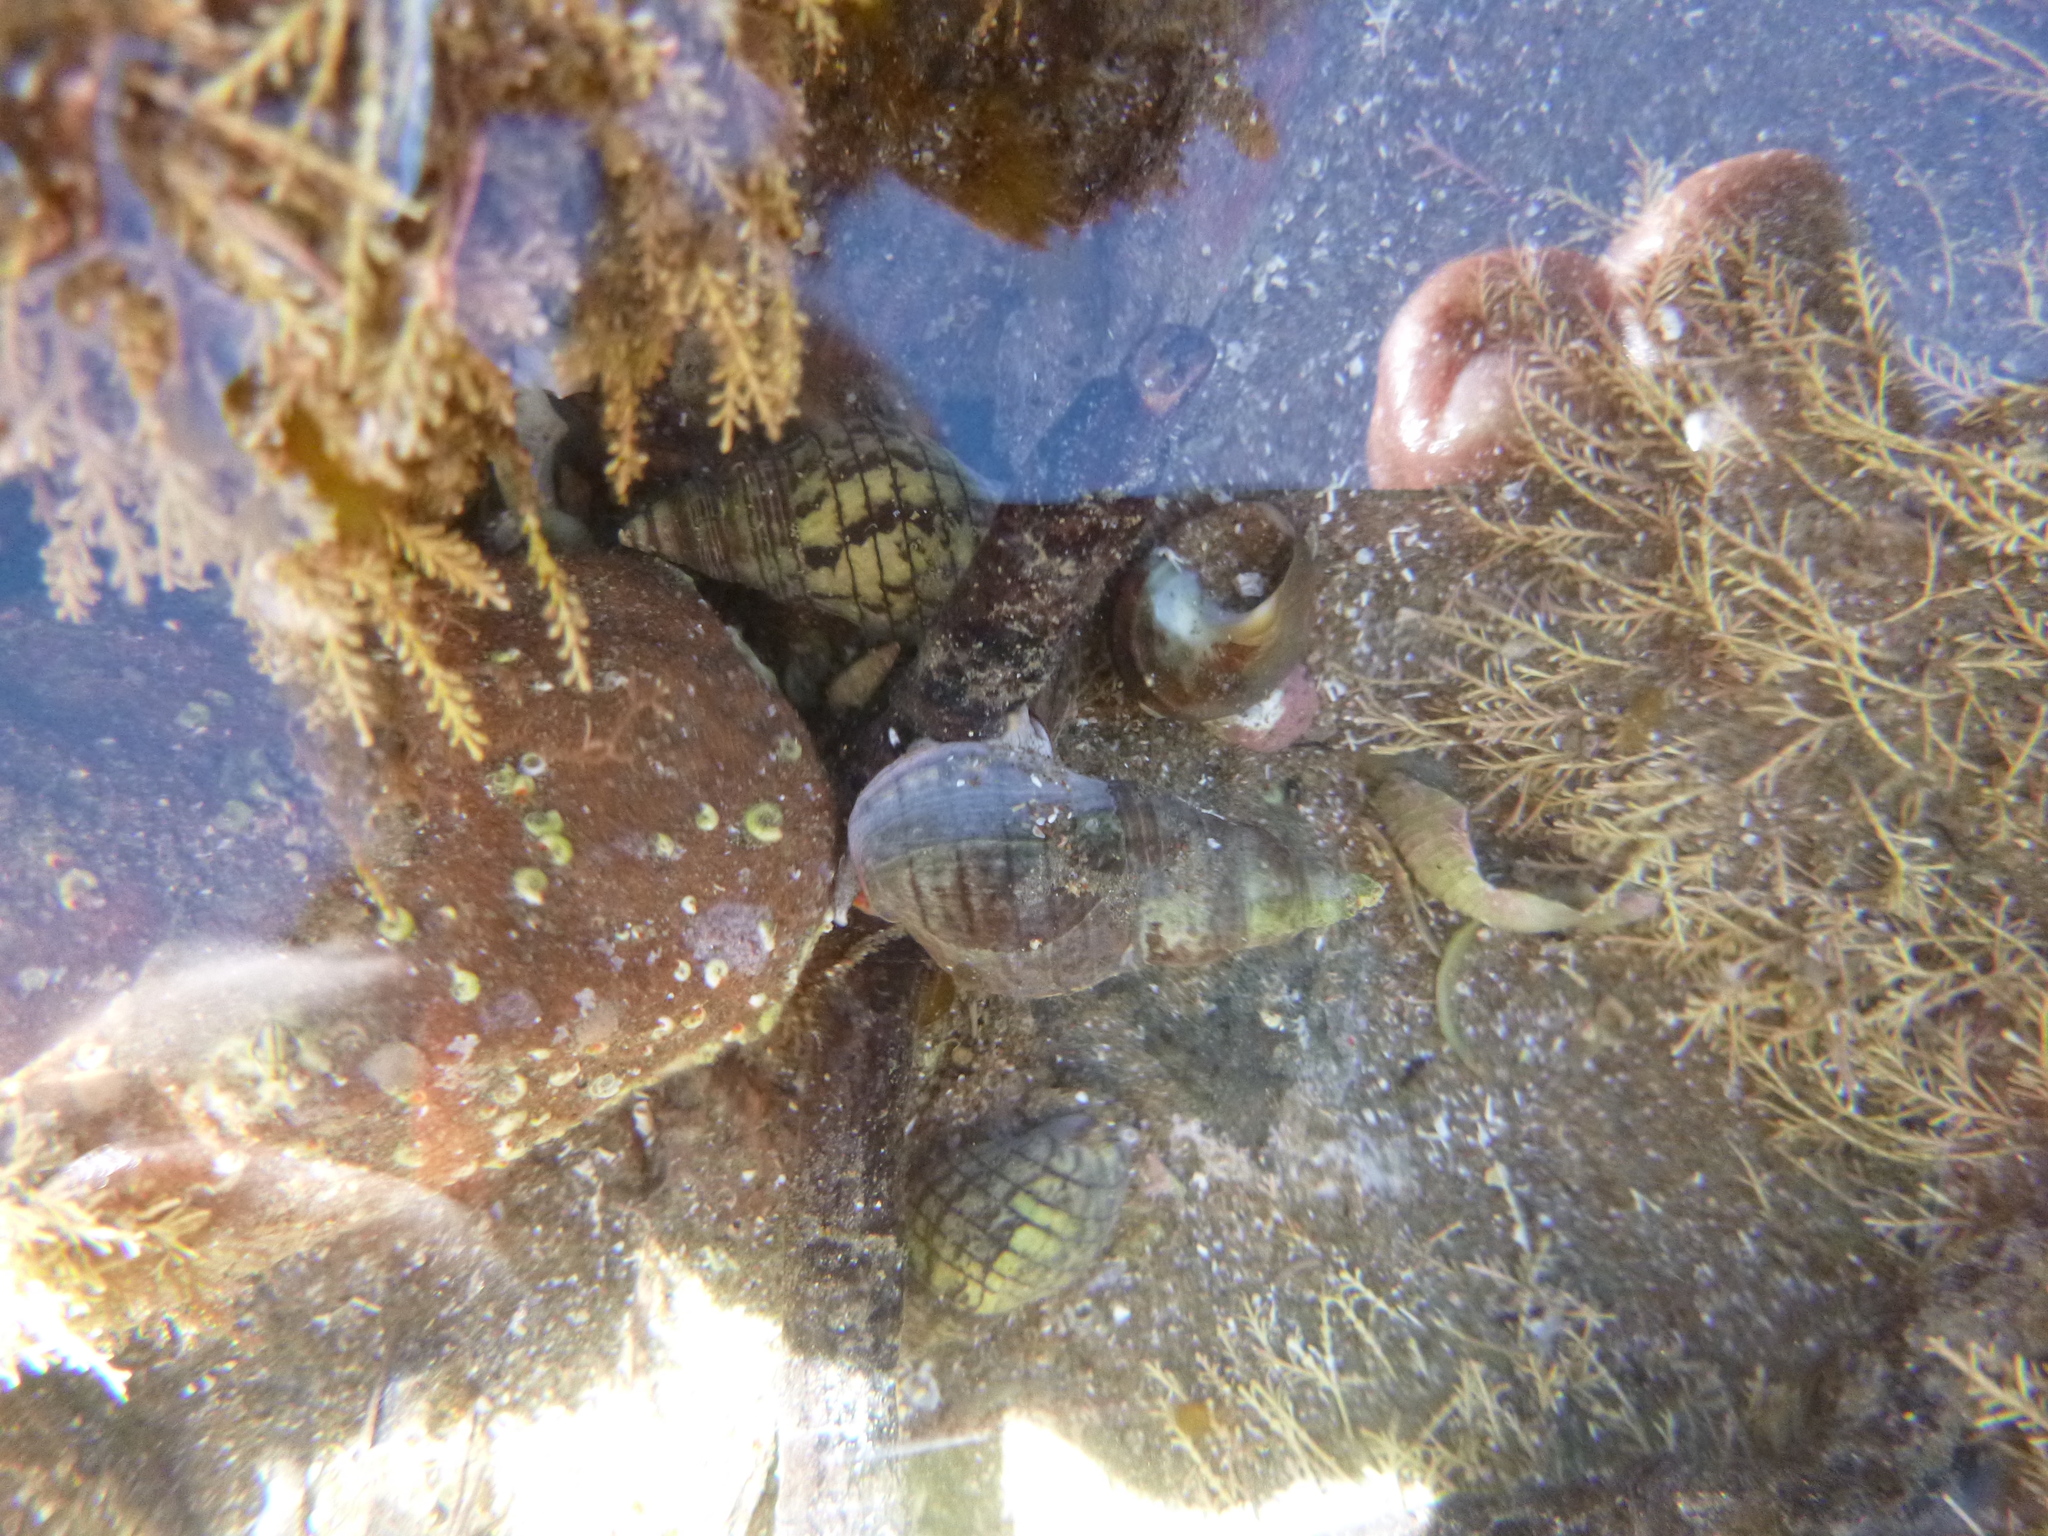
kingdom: Animalia
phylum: Mollusca
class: Gastropoda
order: Neogastropoda
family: Cominellidae
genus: Cominella
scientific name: Cominella virgata
